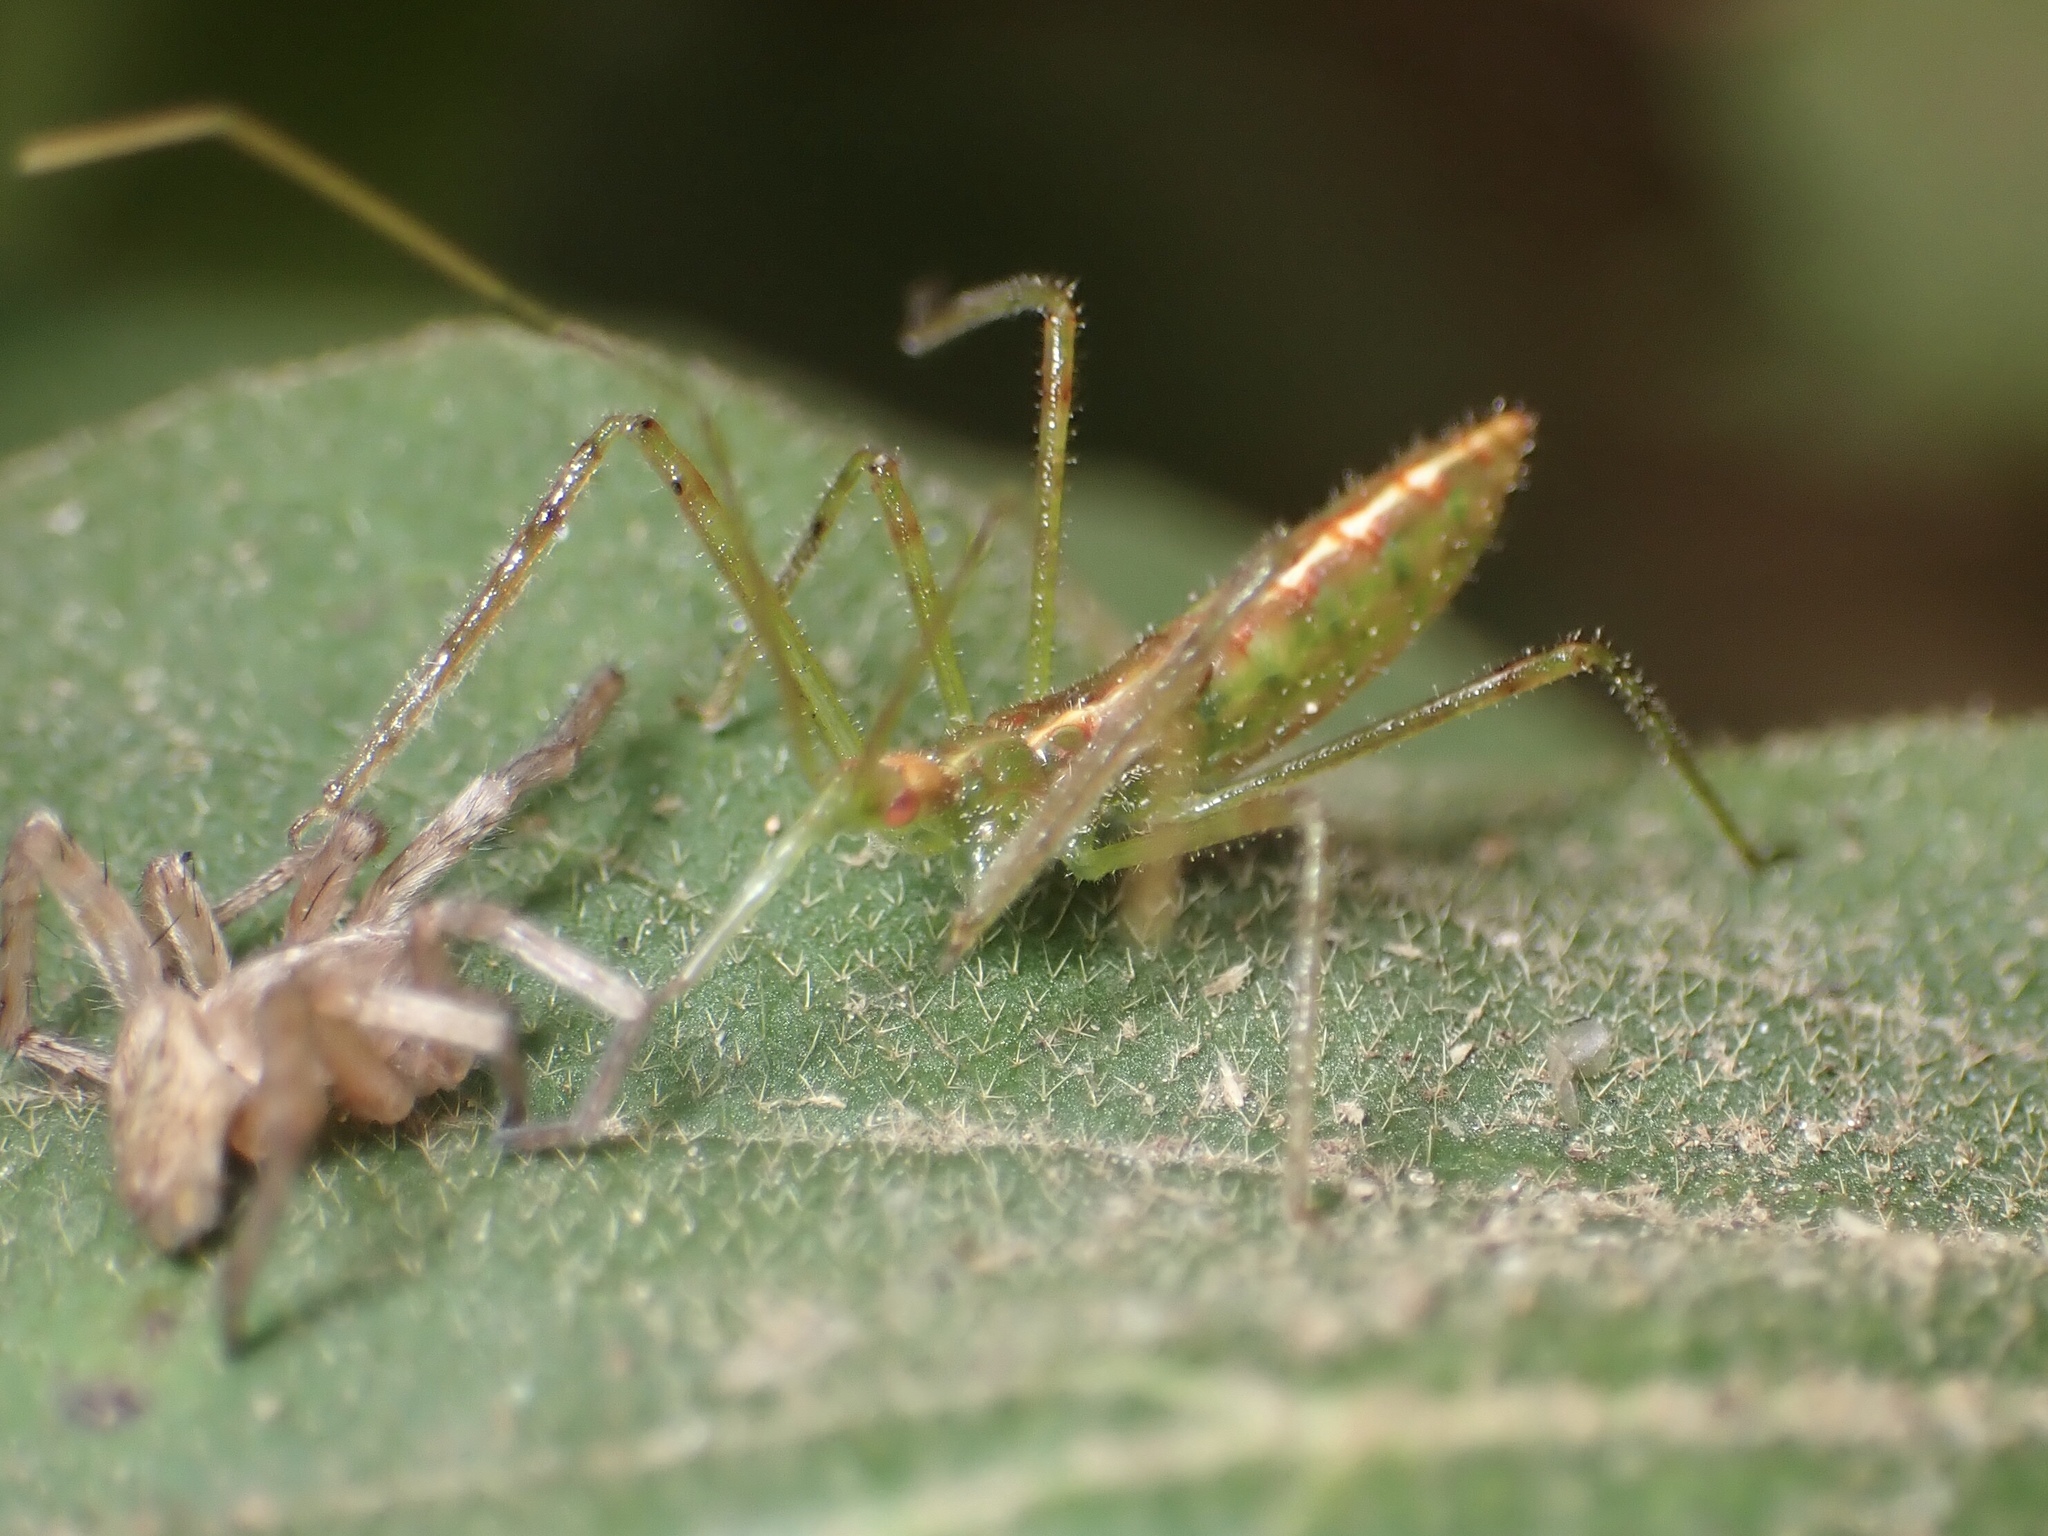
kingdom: Animalia
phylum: Arthropoda
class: Insecta
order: Hemiptera
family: Reduviidae
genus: Zelus
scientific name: Zelus luridus
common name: Pale green assassin bug
